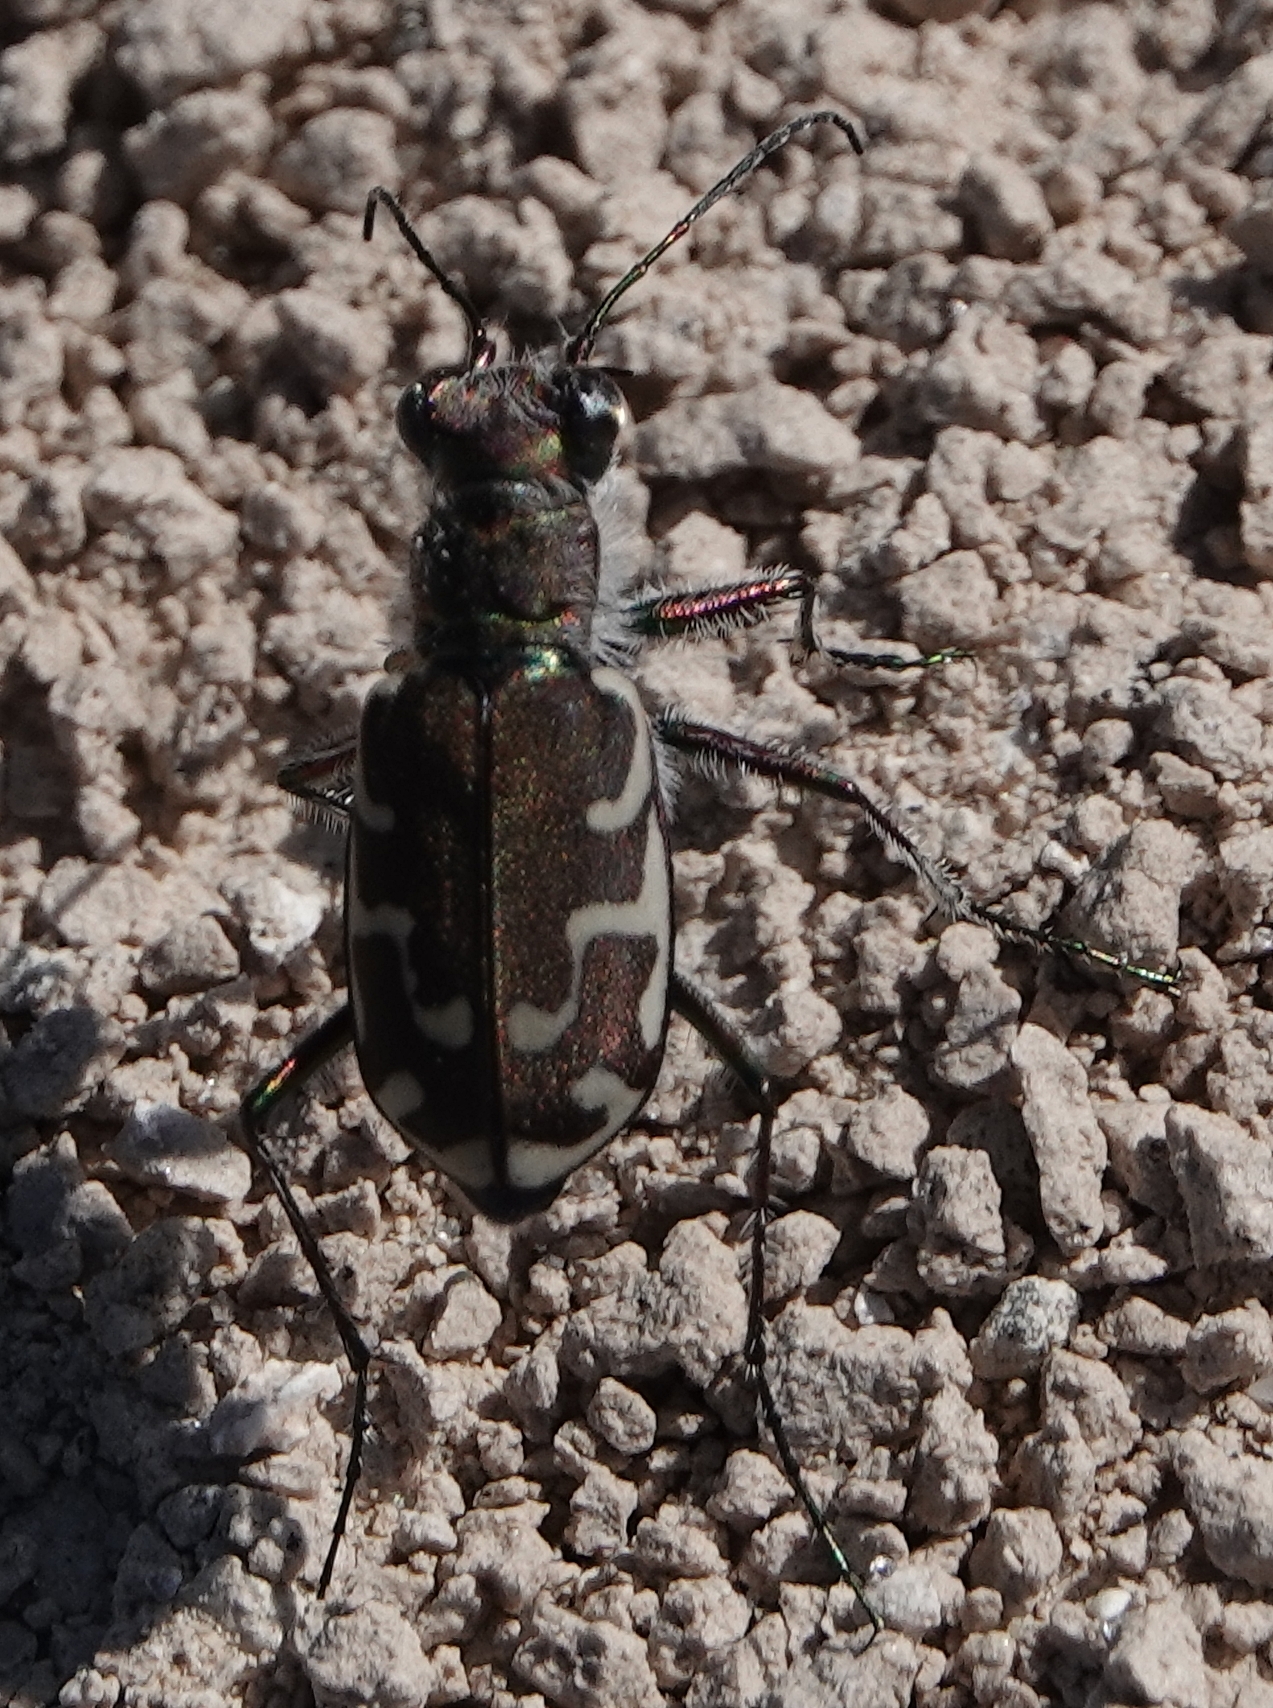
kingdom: Animalia
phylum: Arthropoda
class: Insecta
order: Coleoptera
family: Carabidae
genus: Cicindela
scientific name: Cicindela repanda
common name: Bronzed tiger beetle
